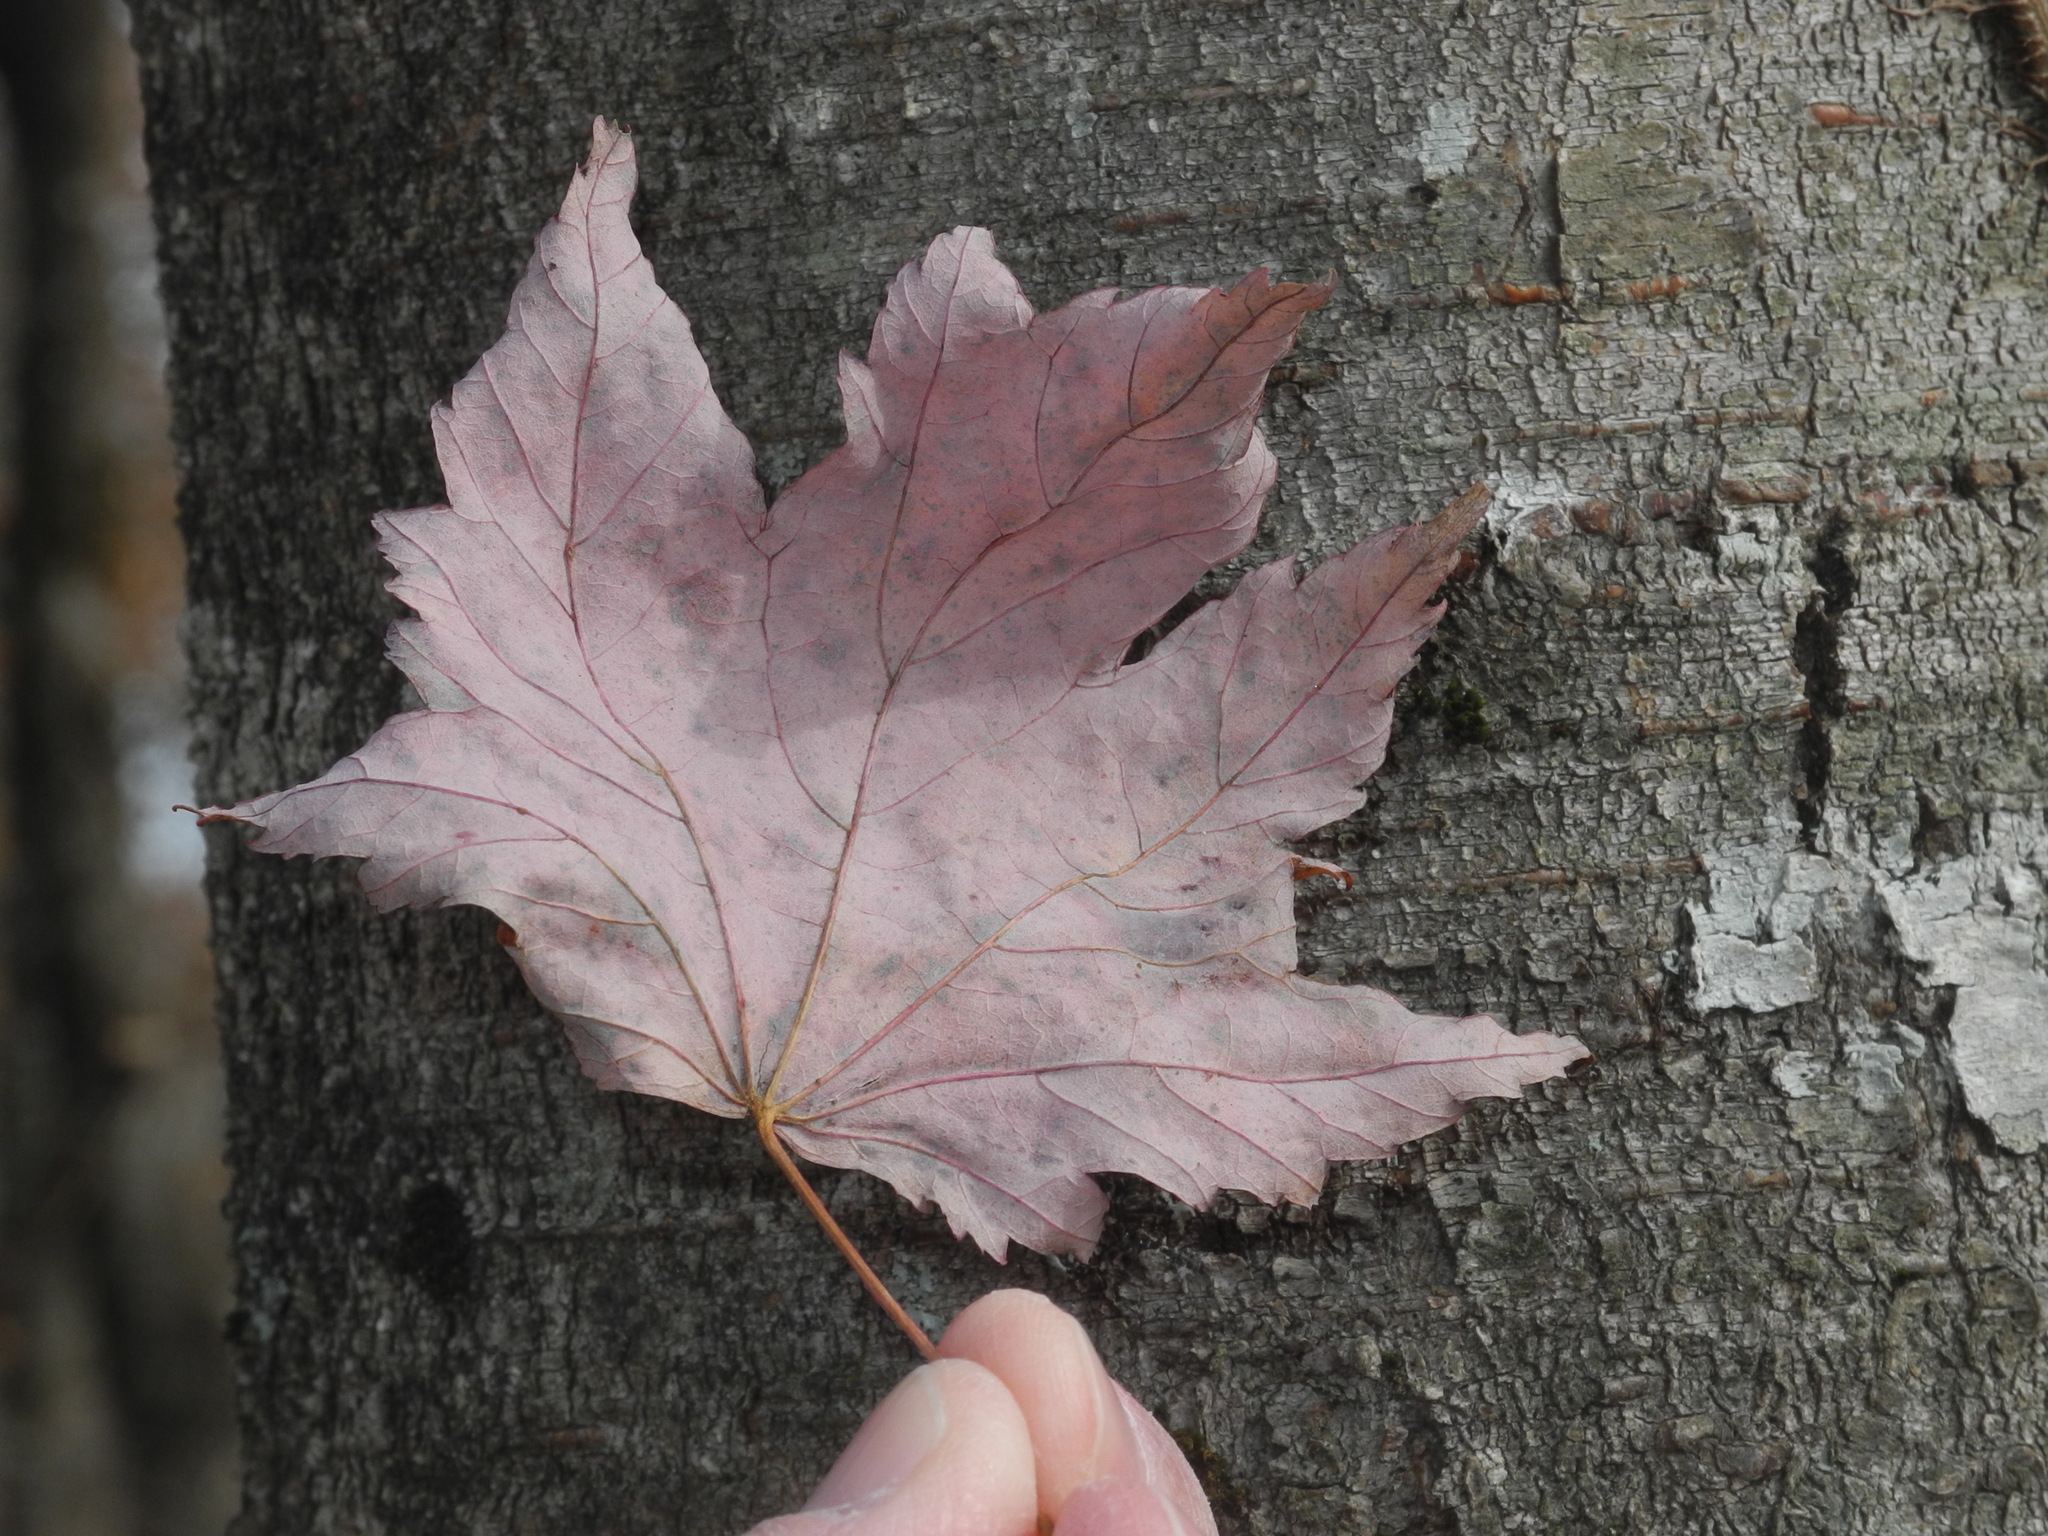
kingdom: Plantae
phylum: Tracheophyta
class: Magnoliopsida
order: Sapindales
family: Sapindaceae
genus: Acer
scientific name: Acer freemanii
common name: Freeman maple
